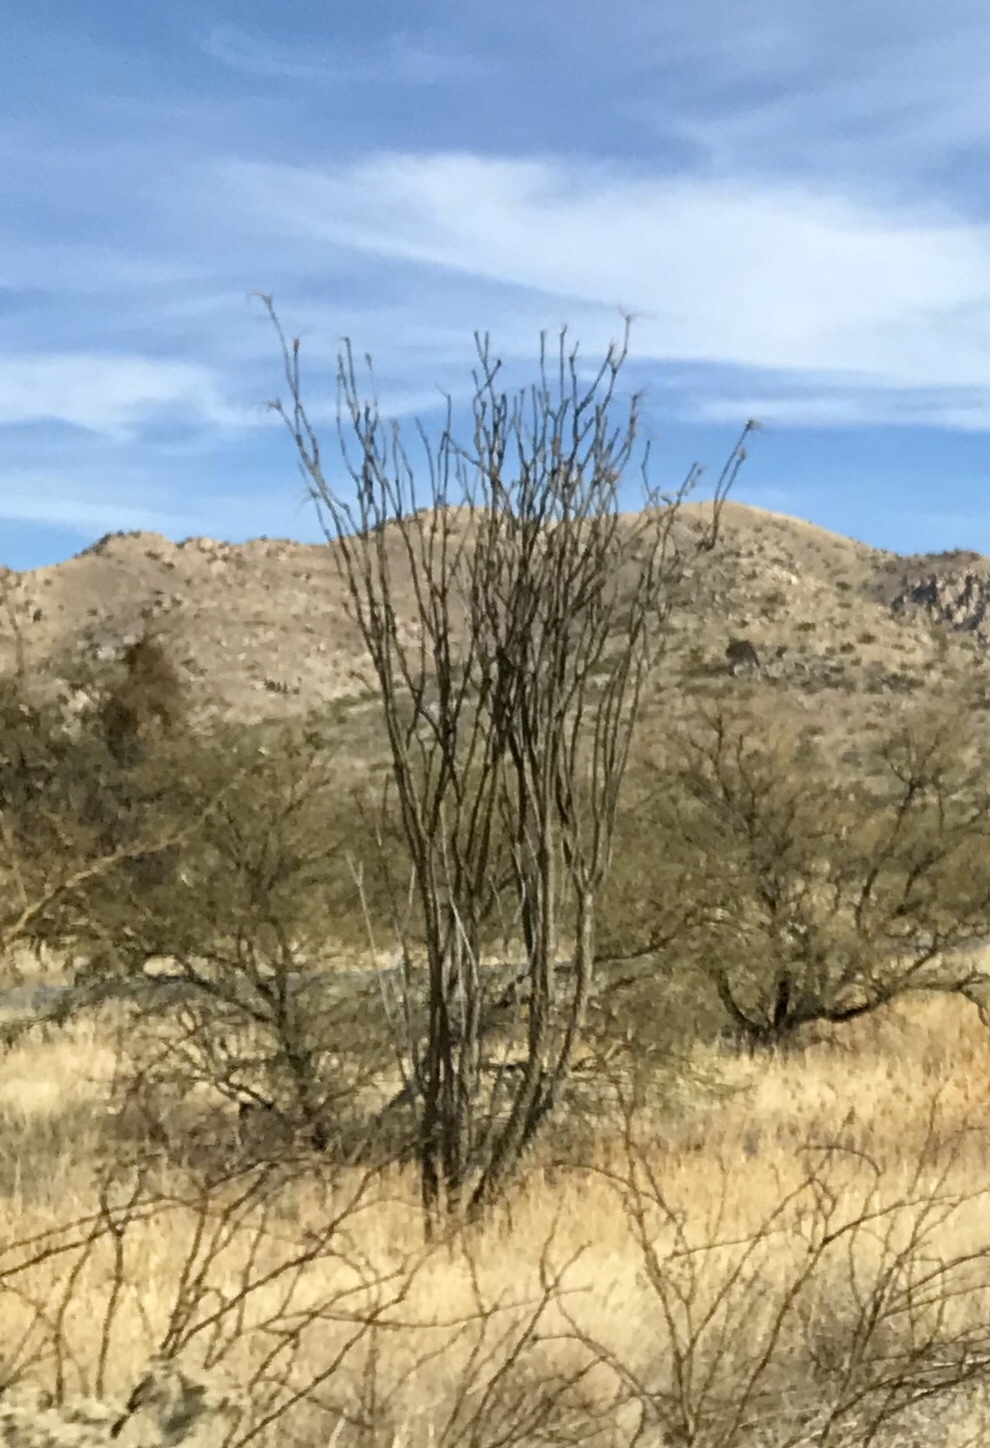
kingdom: Plantae
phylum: Tracheophyta
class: Magnoliopsida
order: Ericales
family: Fouquieriaceae
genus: Fouquieria
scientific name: Fouquieria splendens
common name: Vine-cactus
